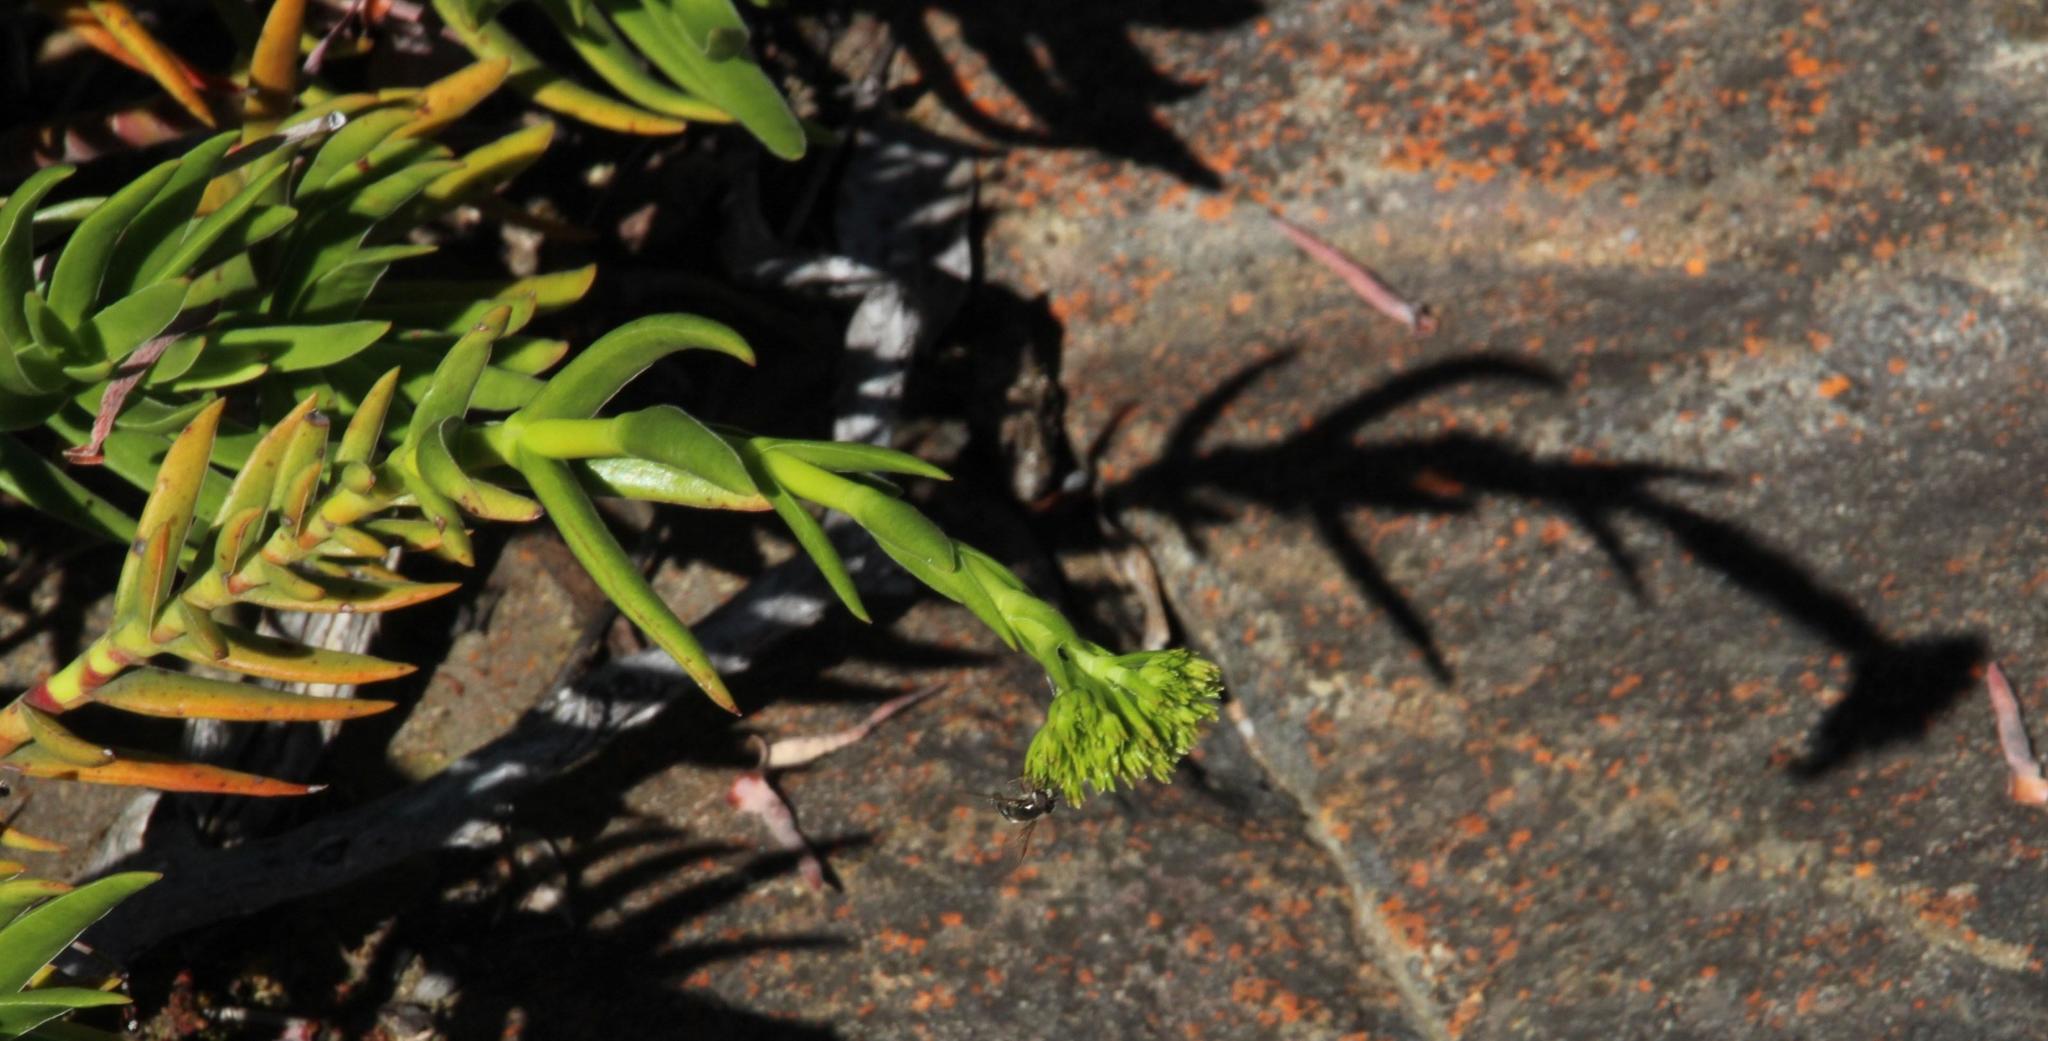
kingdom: Plantae
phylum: Tracheophyta
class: Magnoliopsida
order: Saxifragales
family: Crassulaceae
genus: Crassula
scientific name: Crassula multiflora
